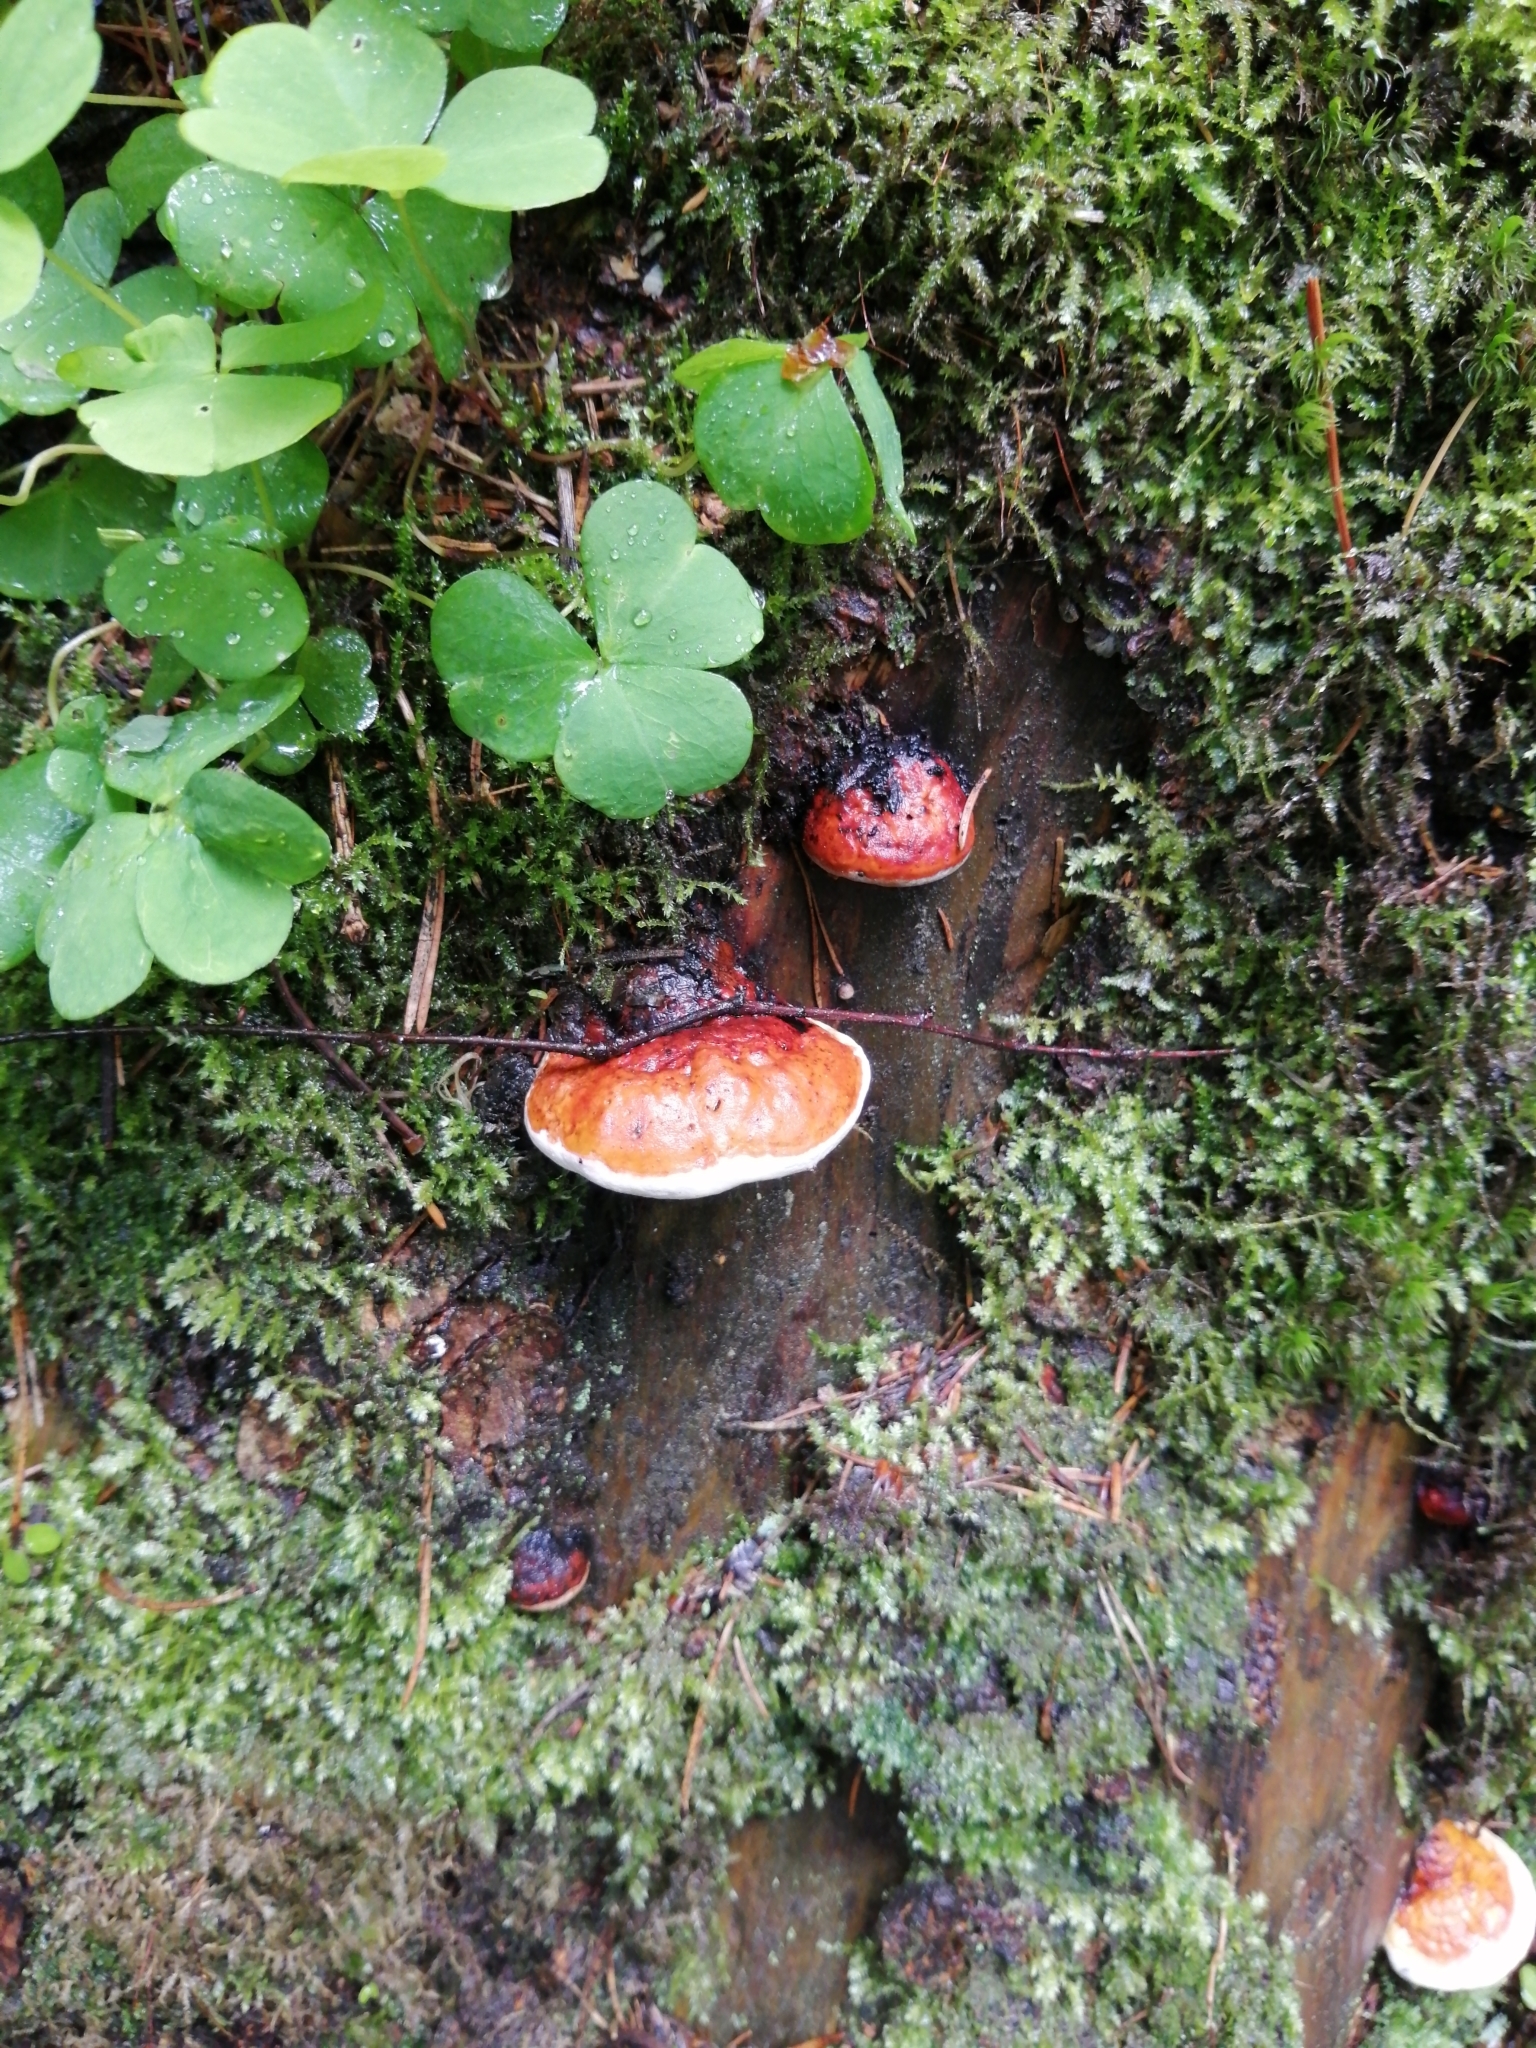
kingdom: Fungi
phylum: Basidiomycota
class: Agaricomycetes
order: Polyporales
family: Fomitopsidaceae
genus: Fomitopsis
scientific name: Fomitopsis pinicola
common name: Red-belted bracket
